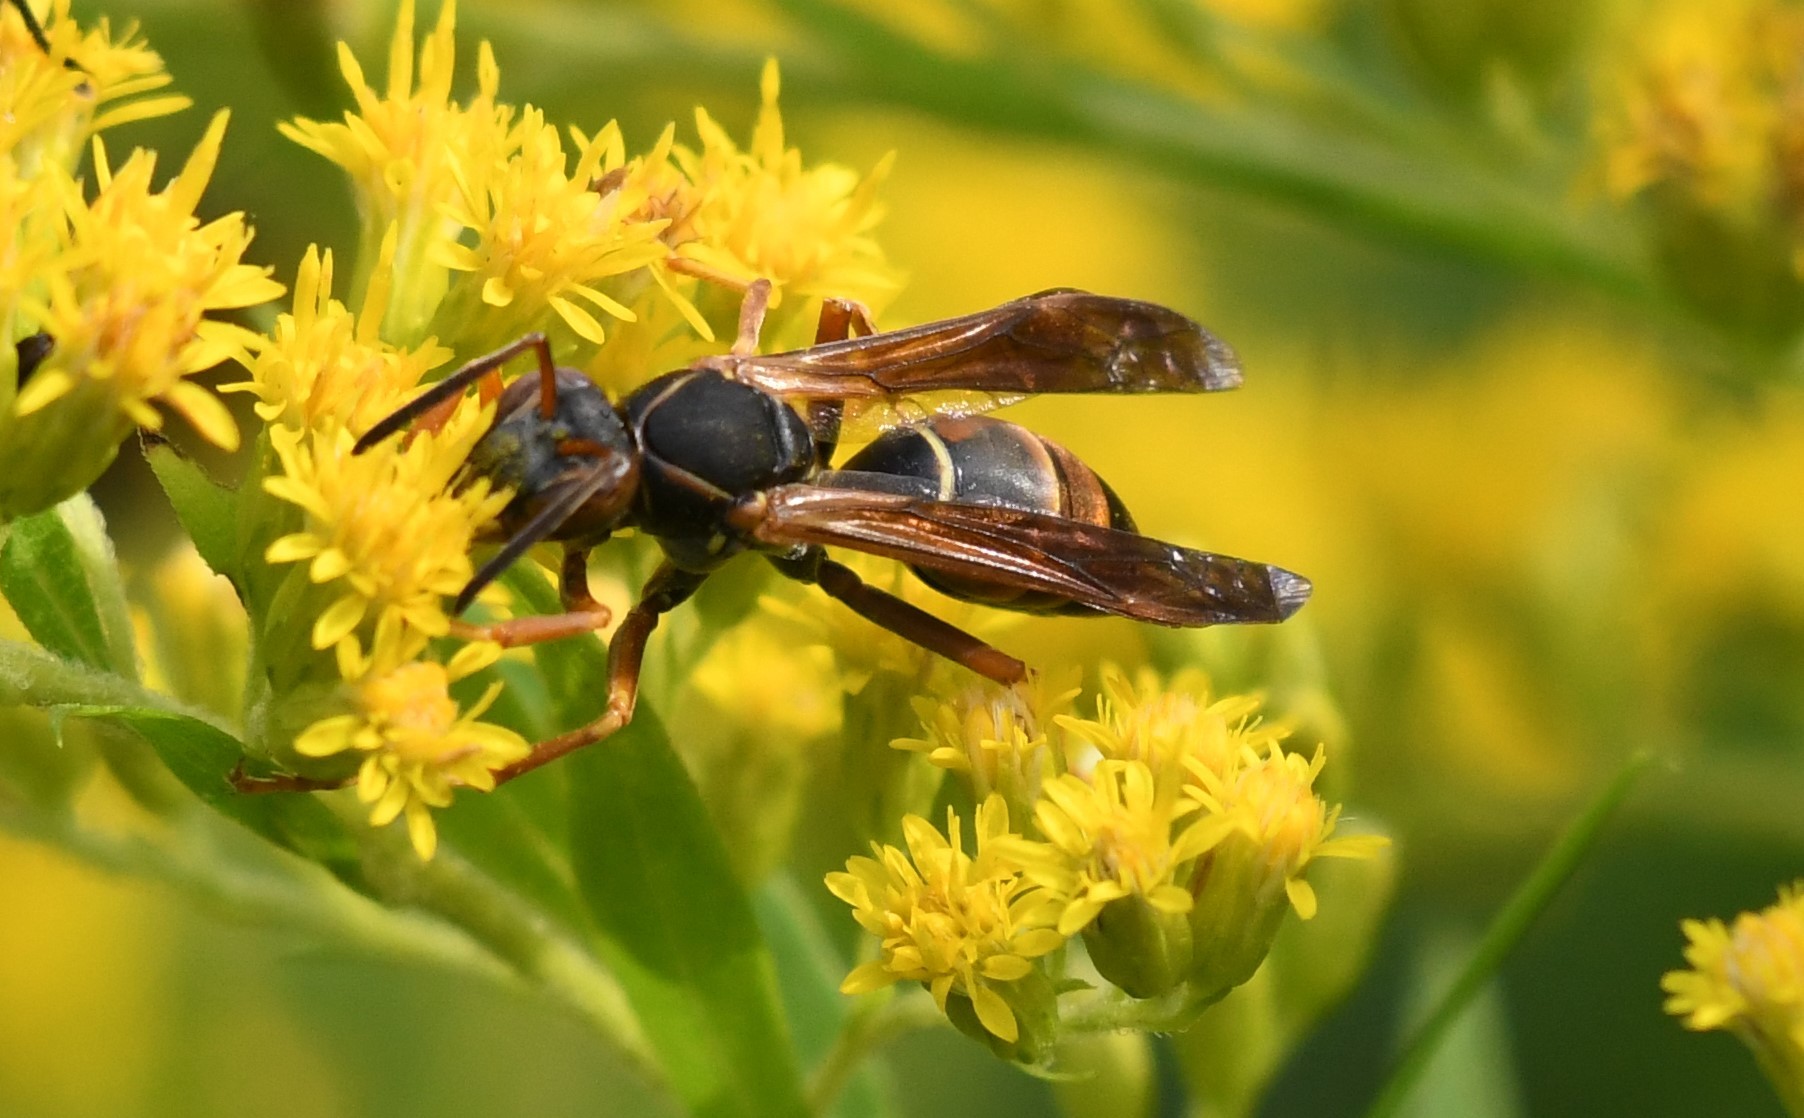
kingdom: Animalia
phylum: Arthropoda
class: Insecta
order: Hymenoptera
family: Eumenidae
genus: Polistes
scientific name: Polistes fuscatus
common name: Dark paper wasp
